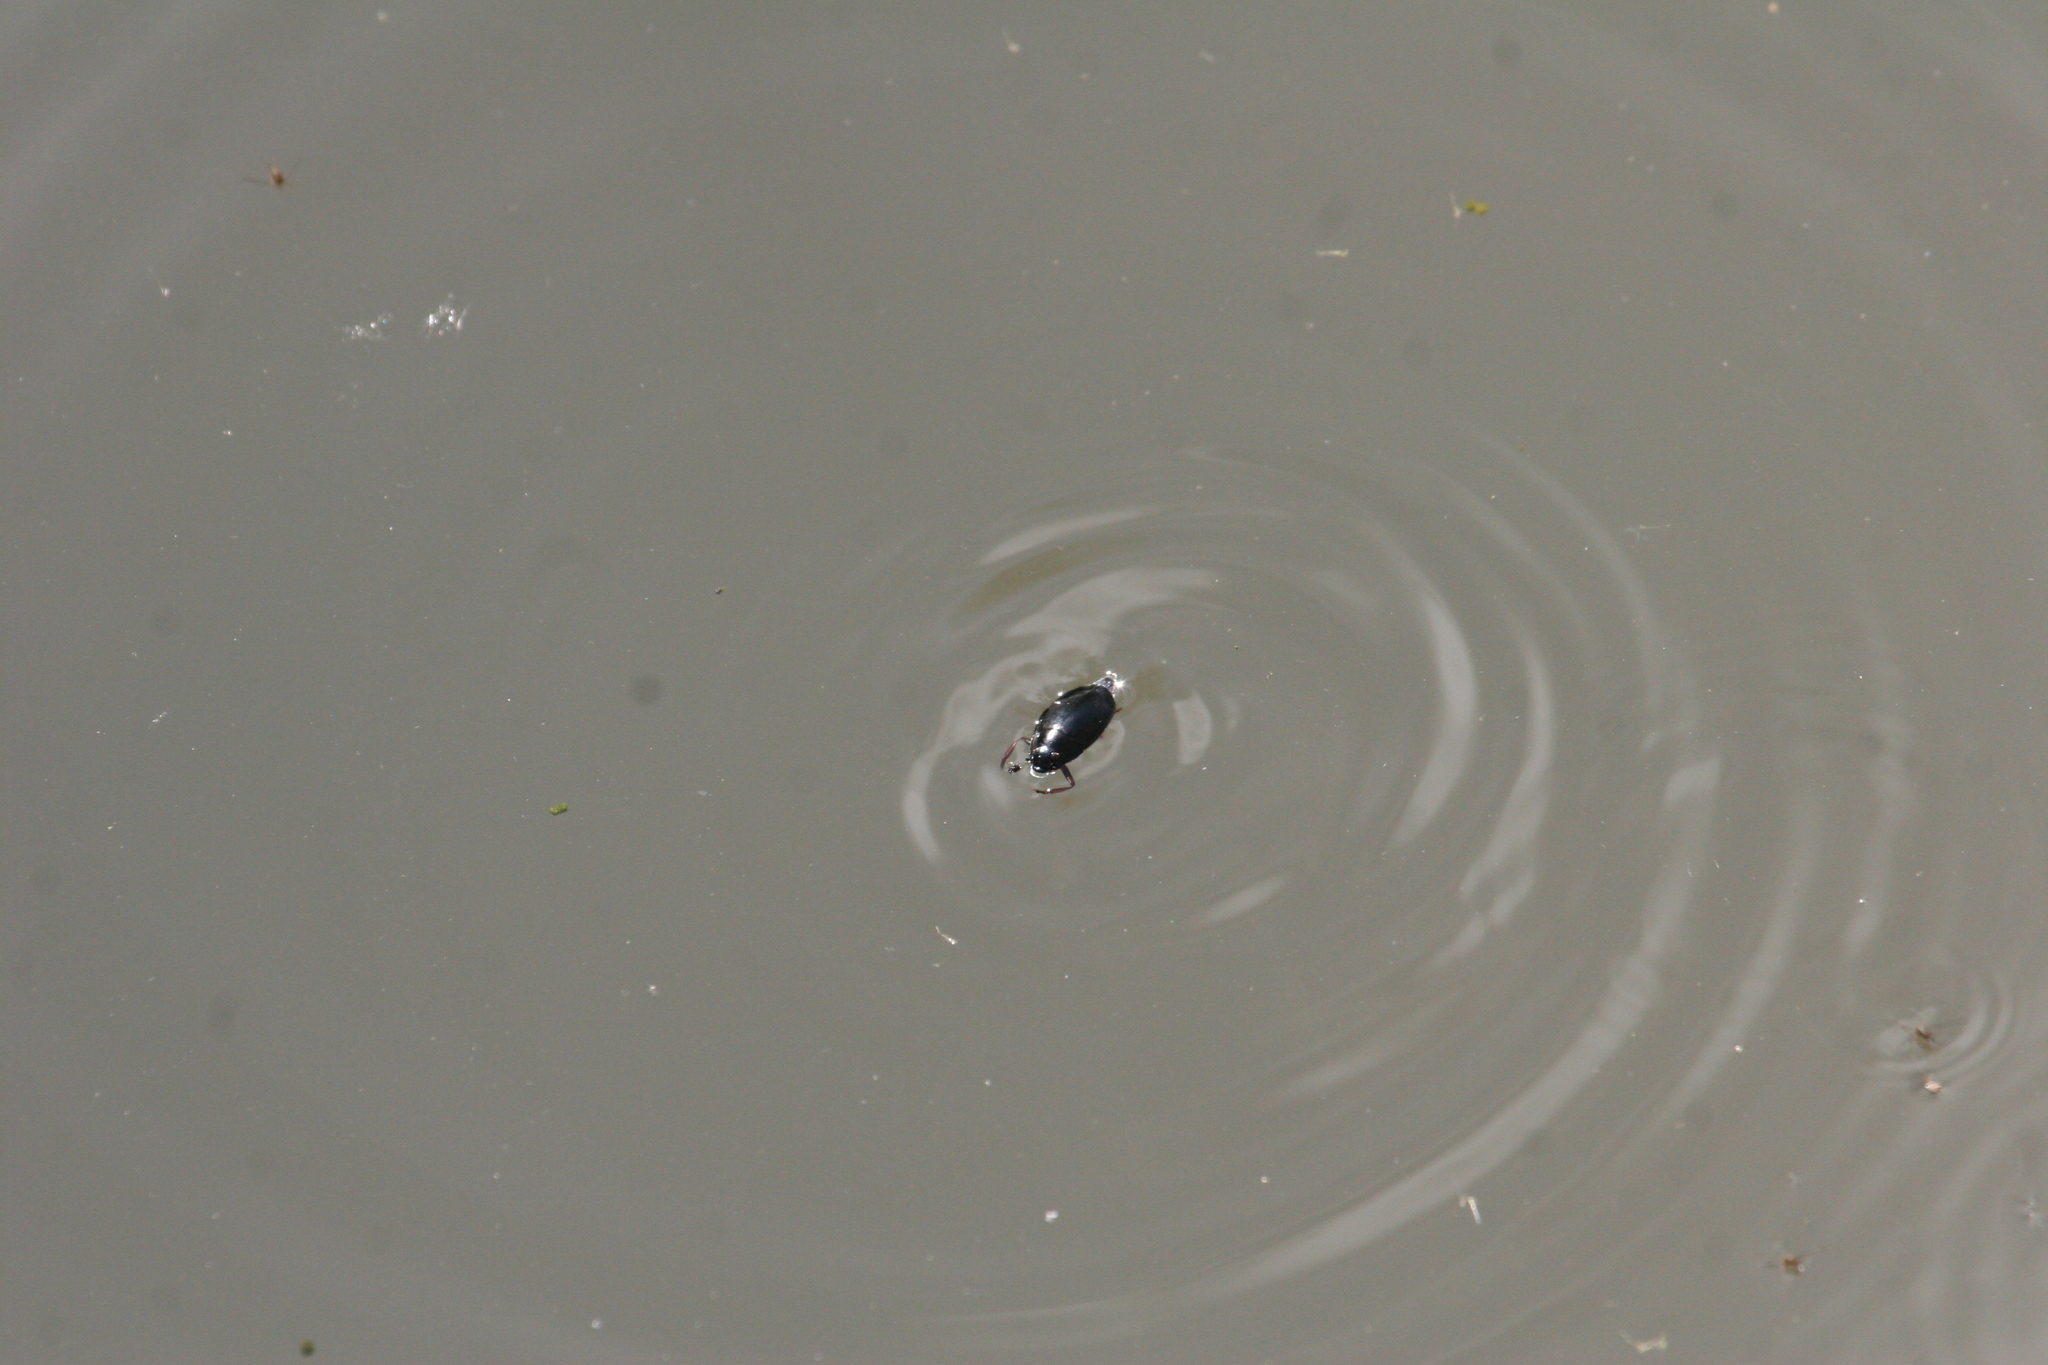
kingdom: Animalia
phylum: Arthropoda
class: Insecta
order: Coleoptera
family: Gyrinidae
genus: Dineutus
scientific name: Dineutus
